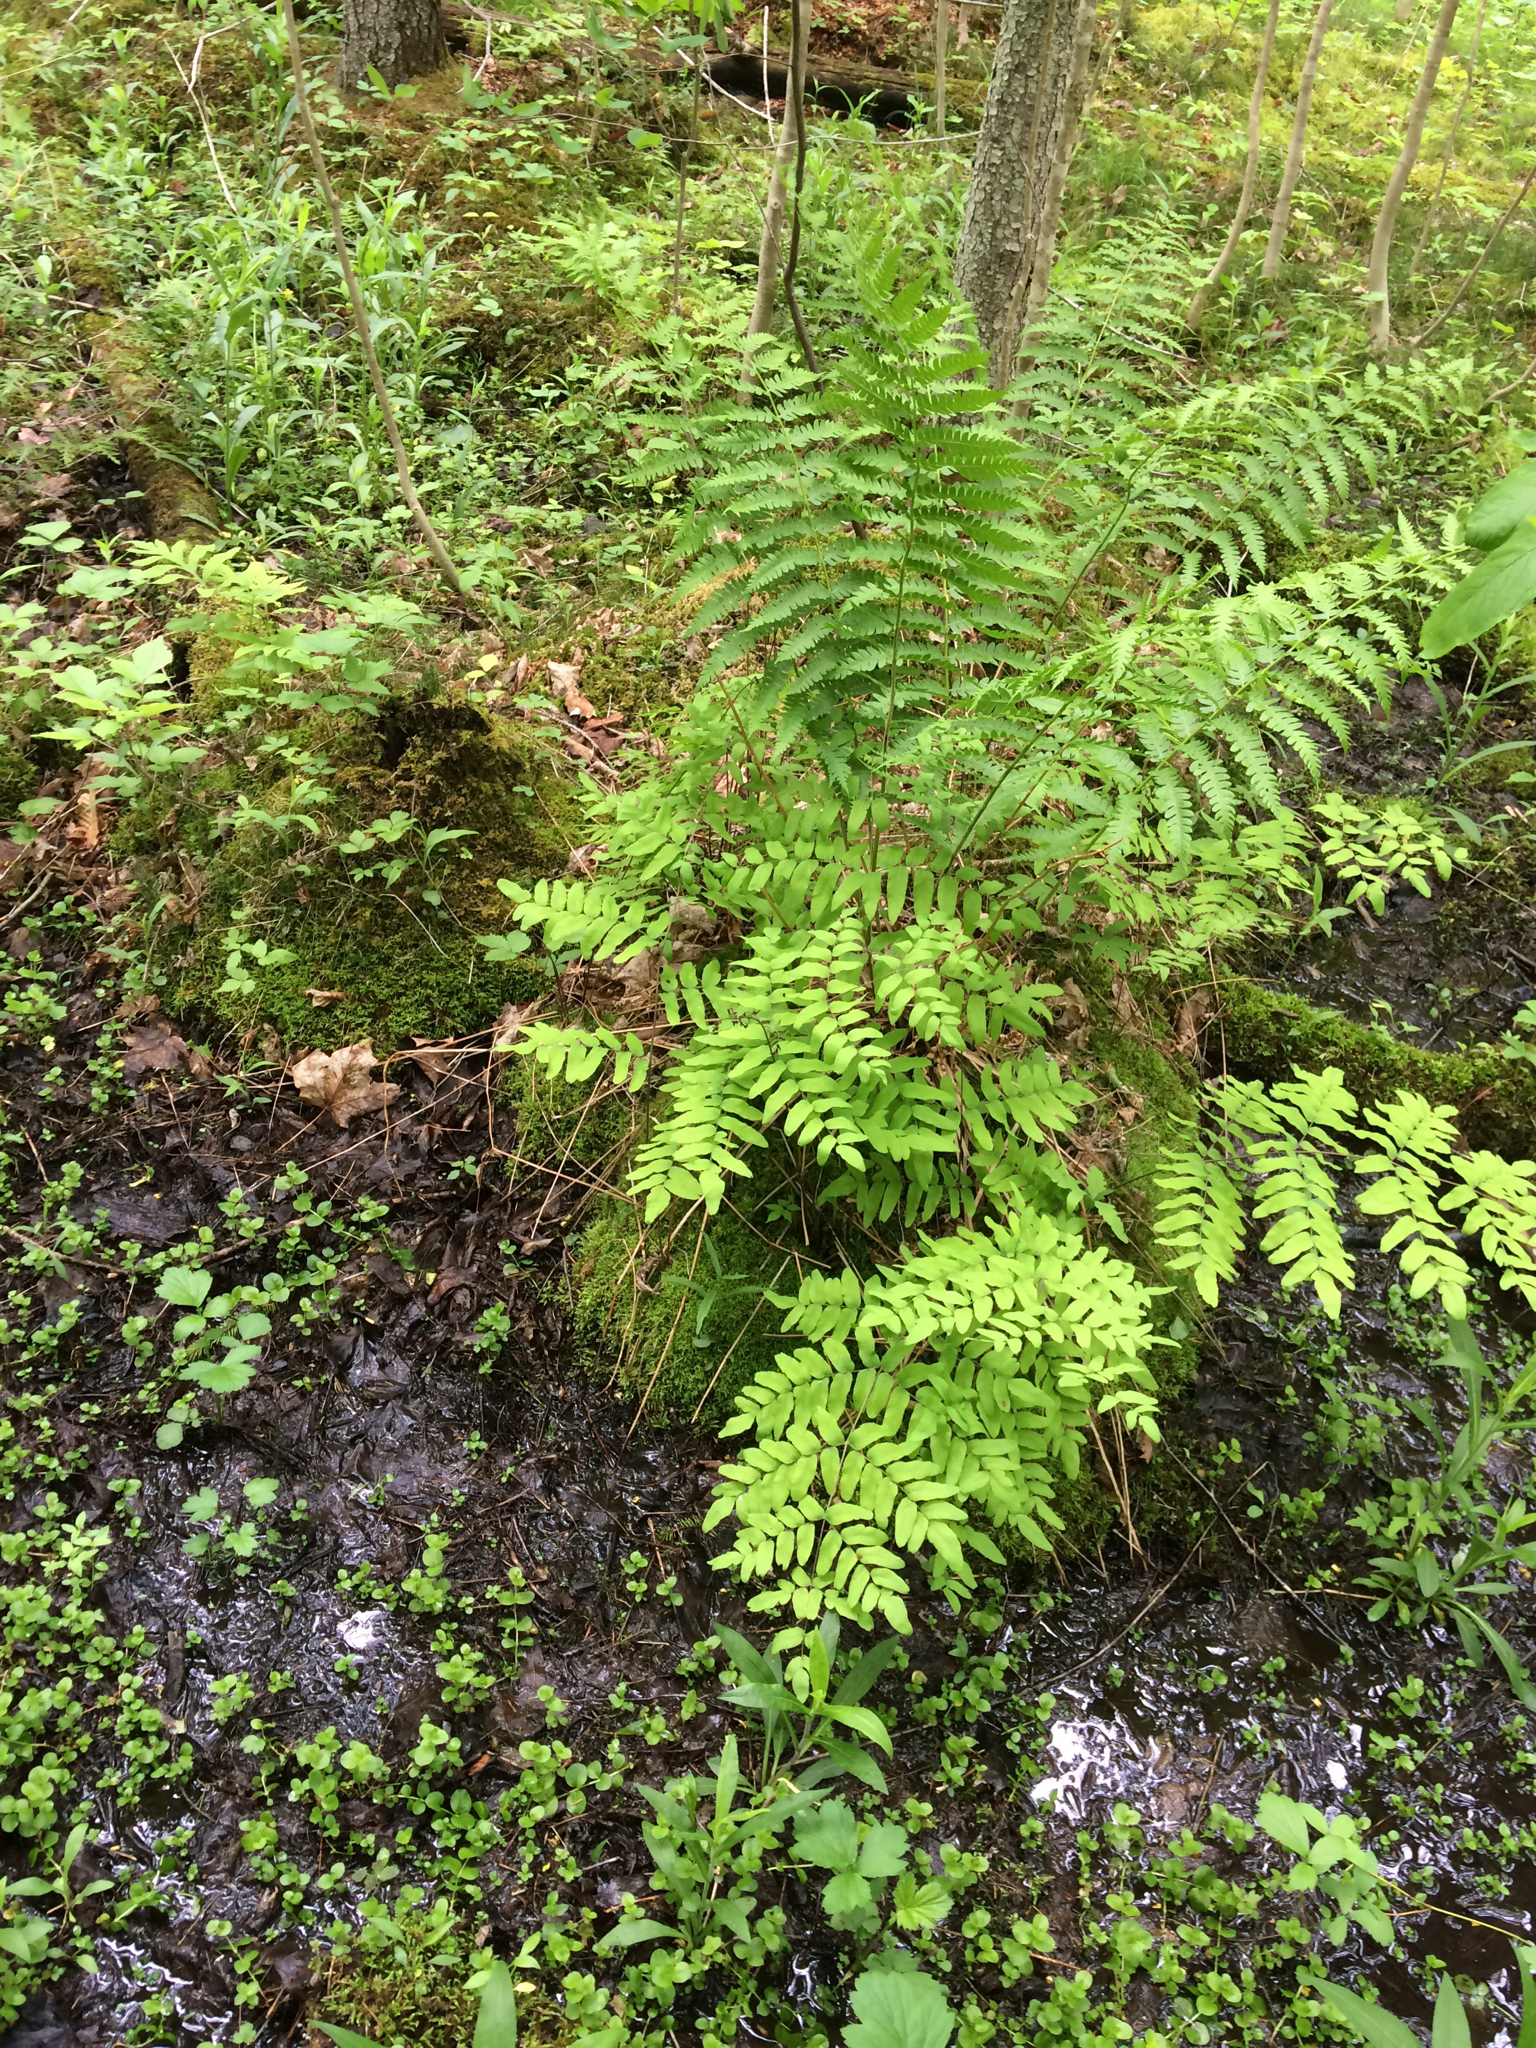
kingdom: Plantae
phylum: Tracheophyta
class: Polypodiopsida
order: Osmundales
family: Osmundaceae
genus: Osmunda
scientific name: Osmunda spectabilis
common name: American royal fern
